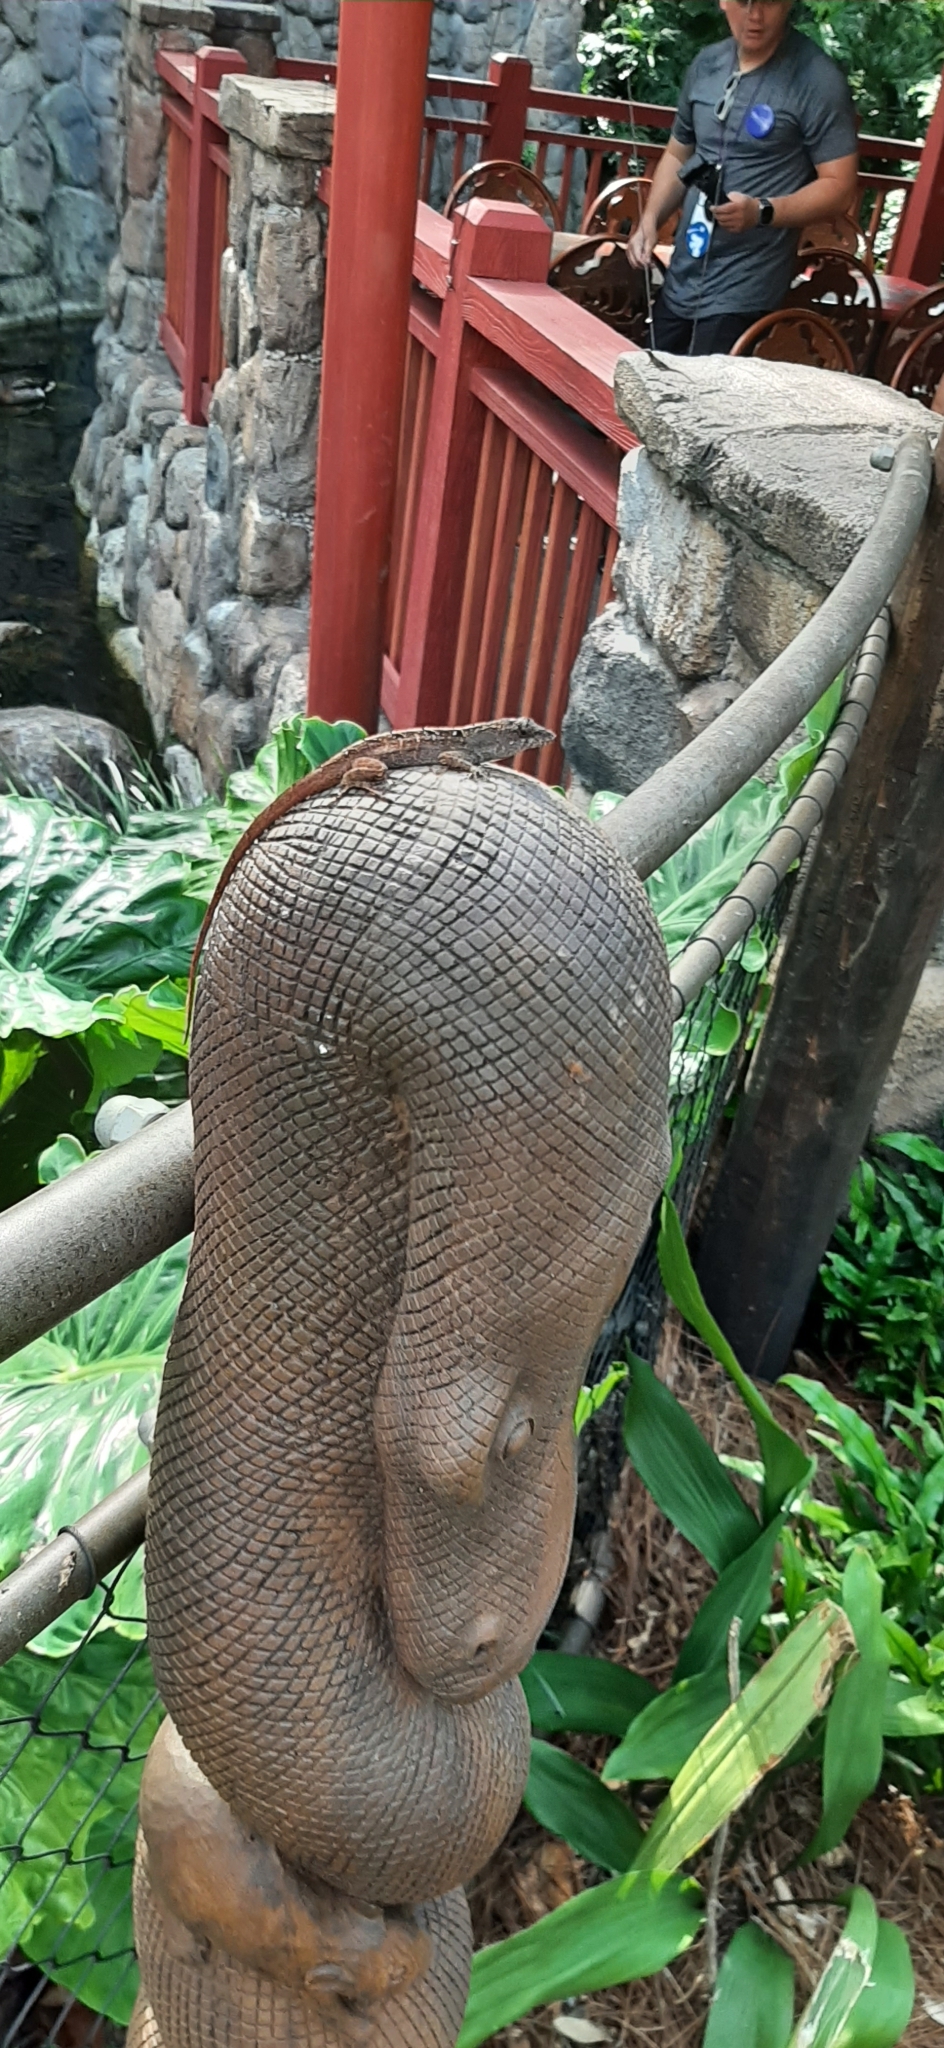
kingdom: Animalia
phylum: Chordata
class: Squamata
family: Dactyloidae
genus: Anolis
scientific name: Anolis sagrei
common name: Brown anole
